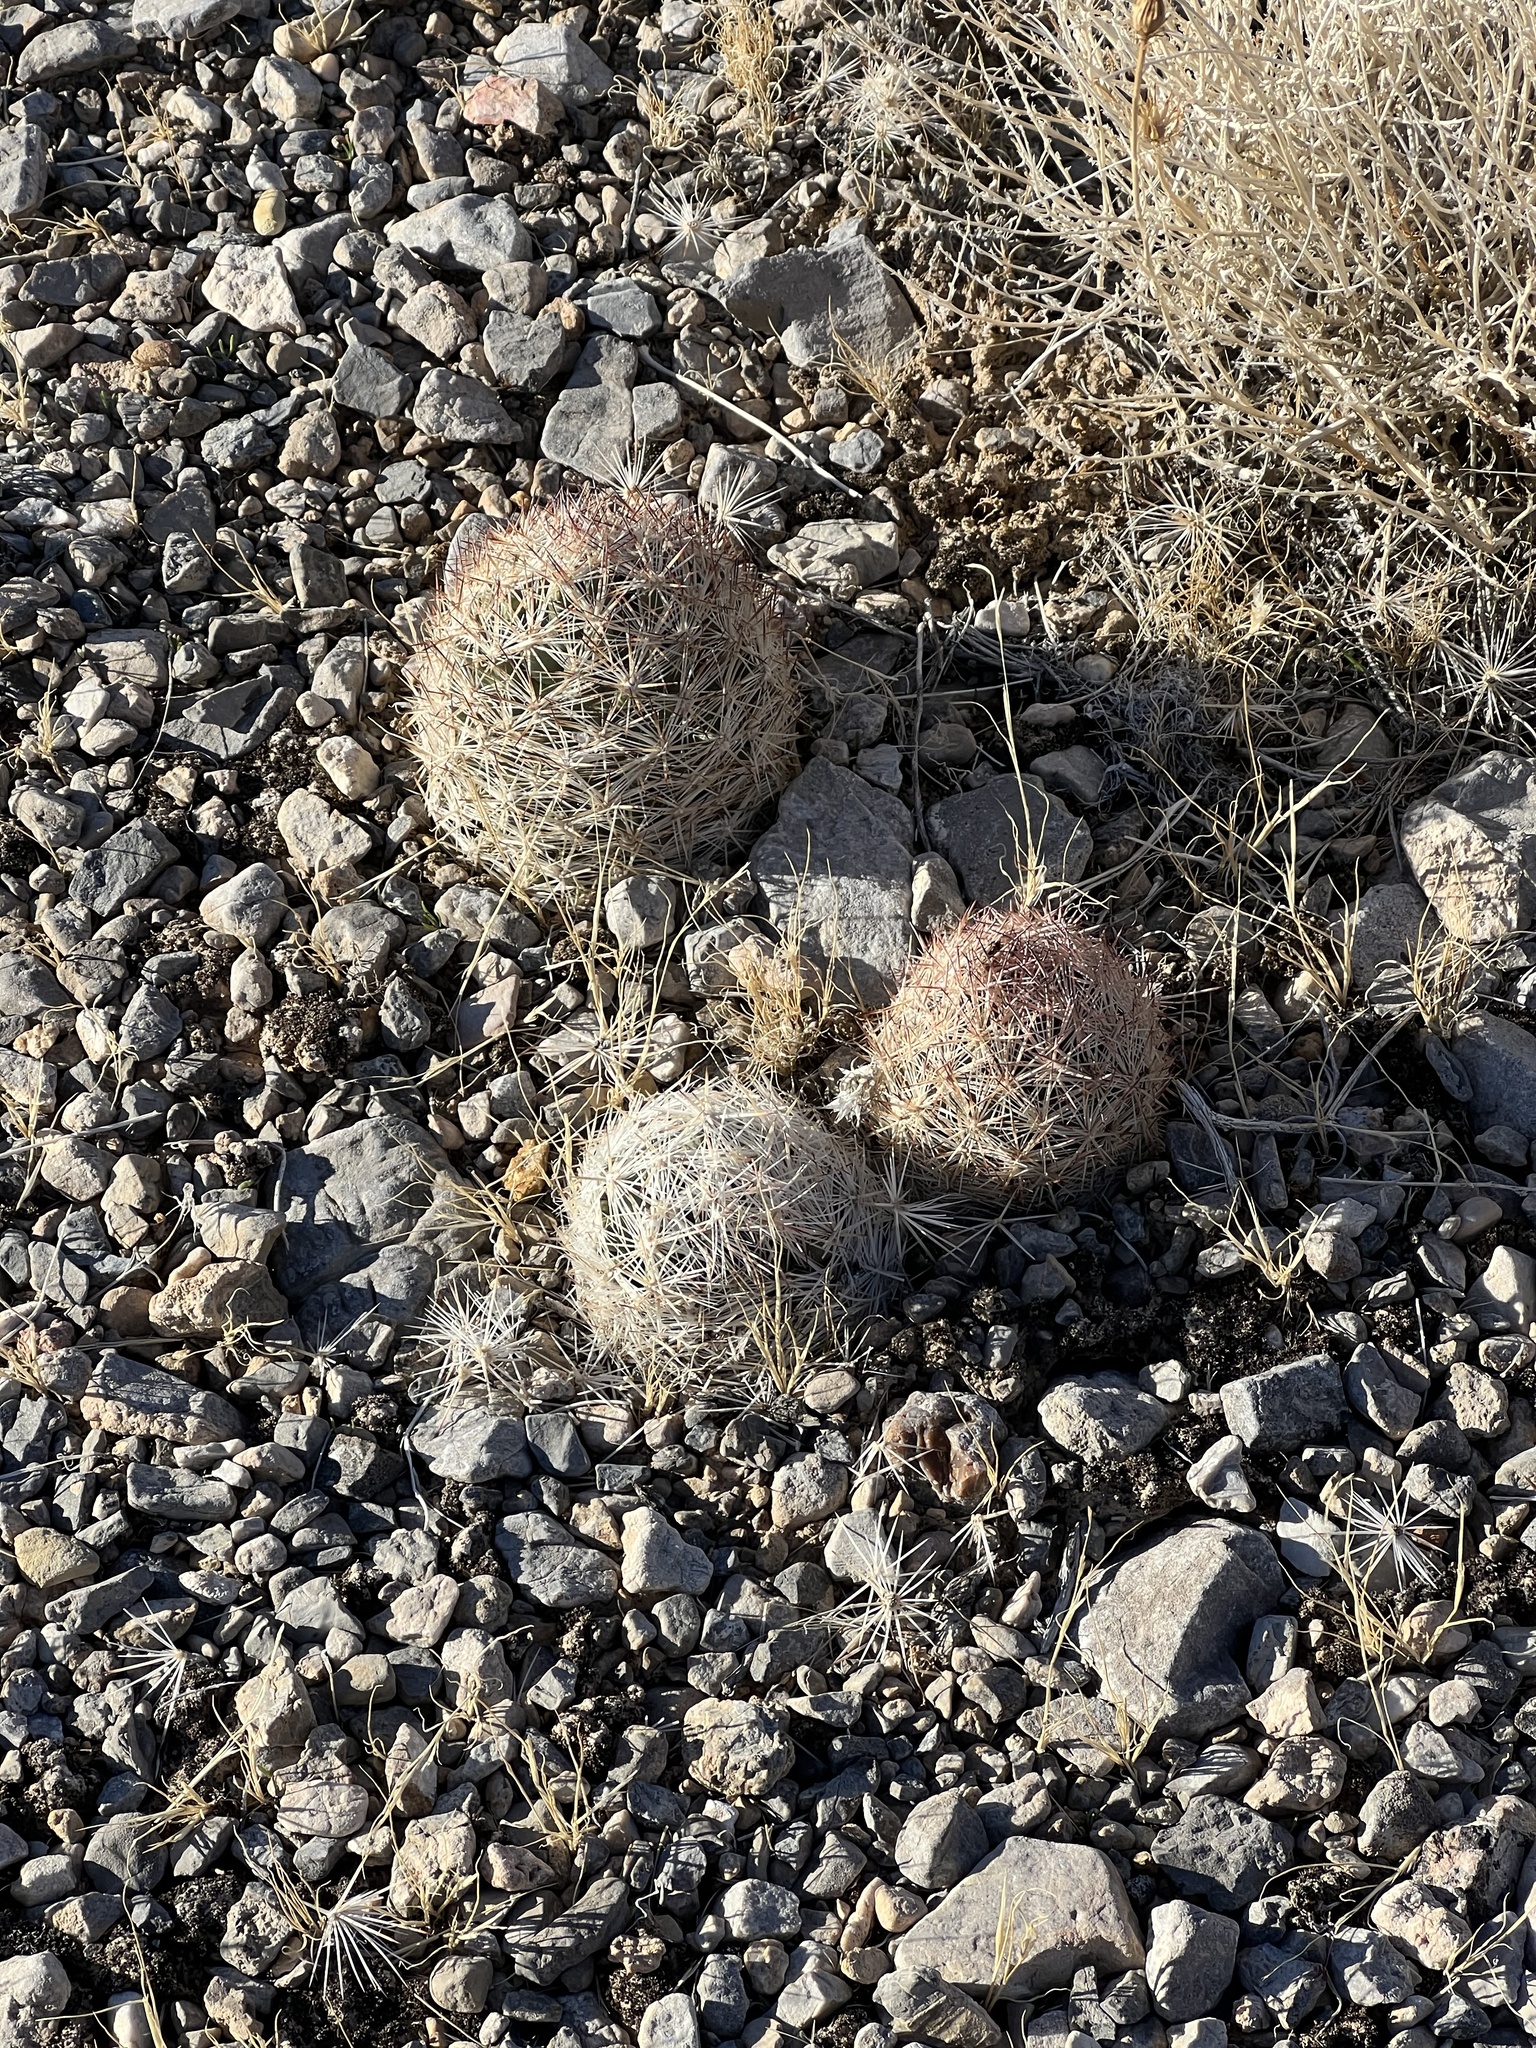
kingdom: Plantae
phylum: Tracheophyta
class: Magnoliopsida
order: Caryophyllales
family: Cactaceae
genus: Pelecyphora
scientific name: Pelecyphora dasyacantha
